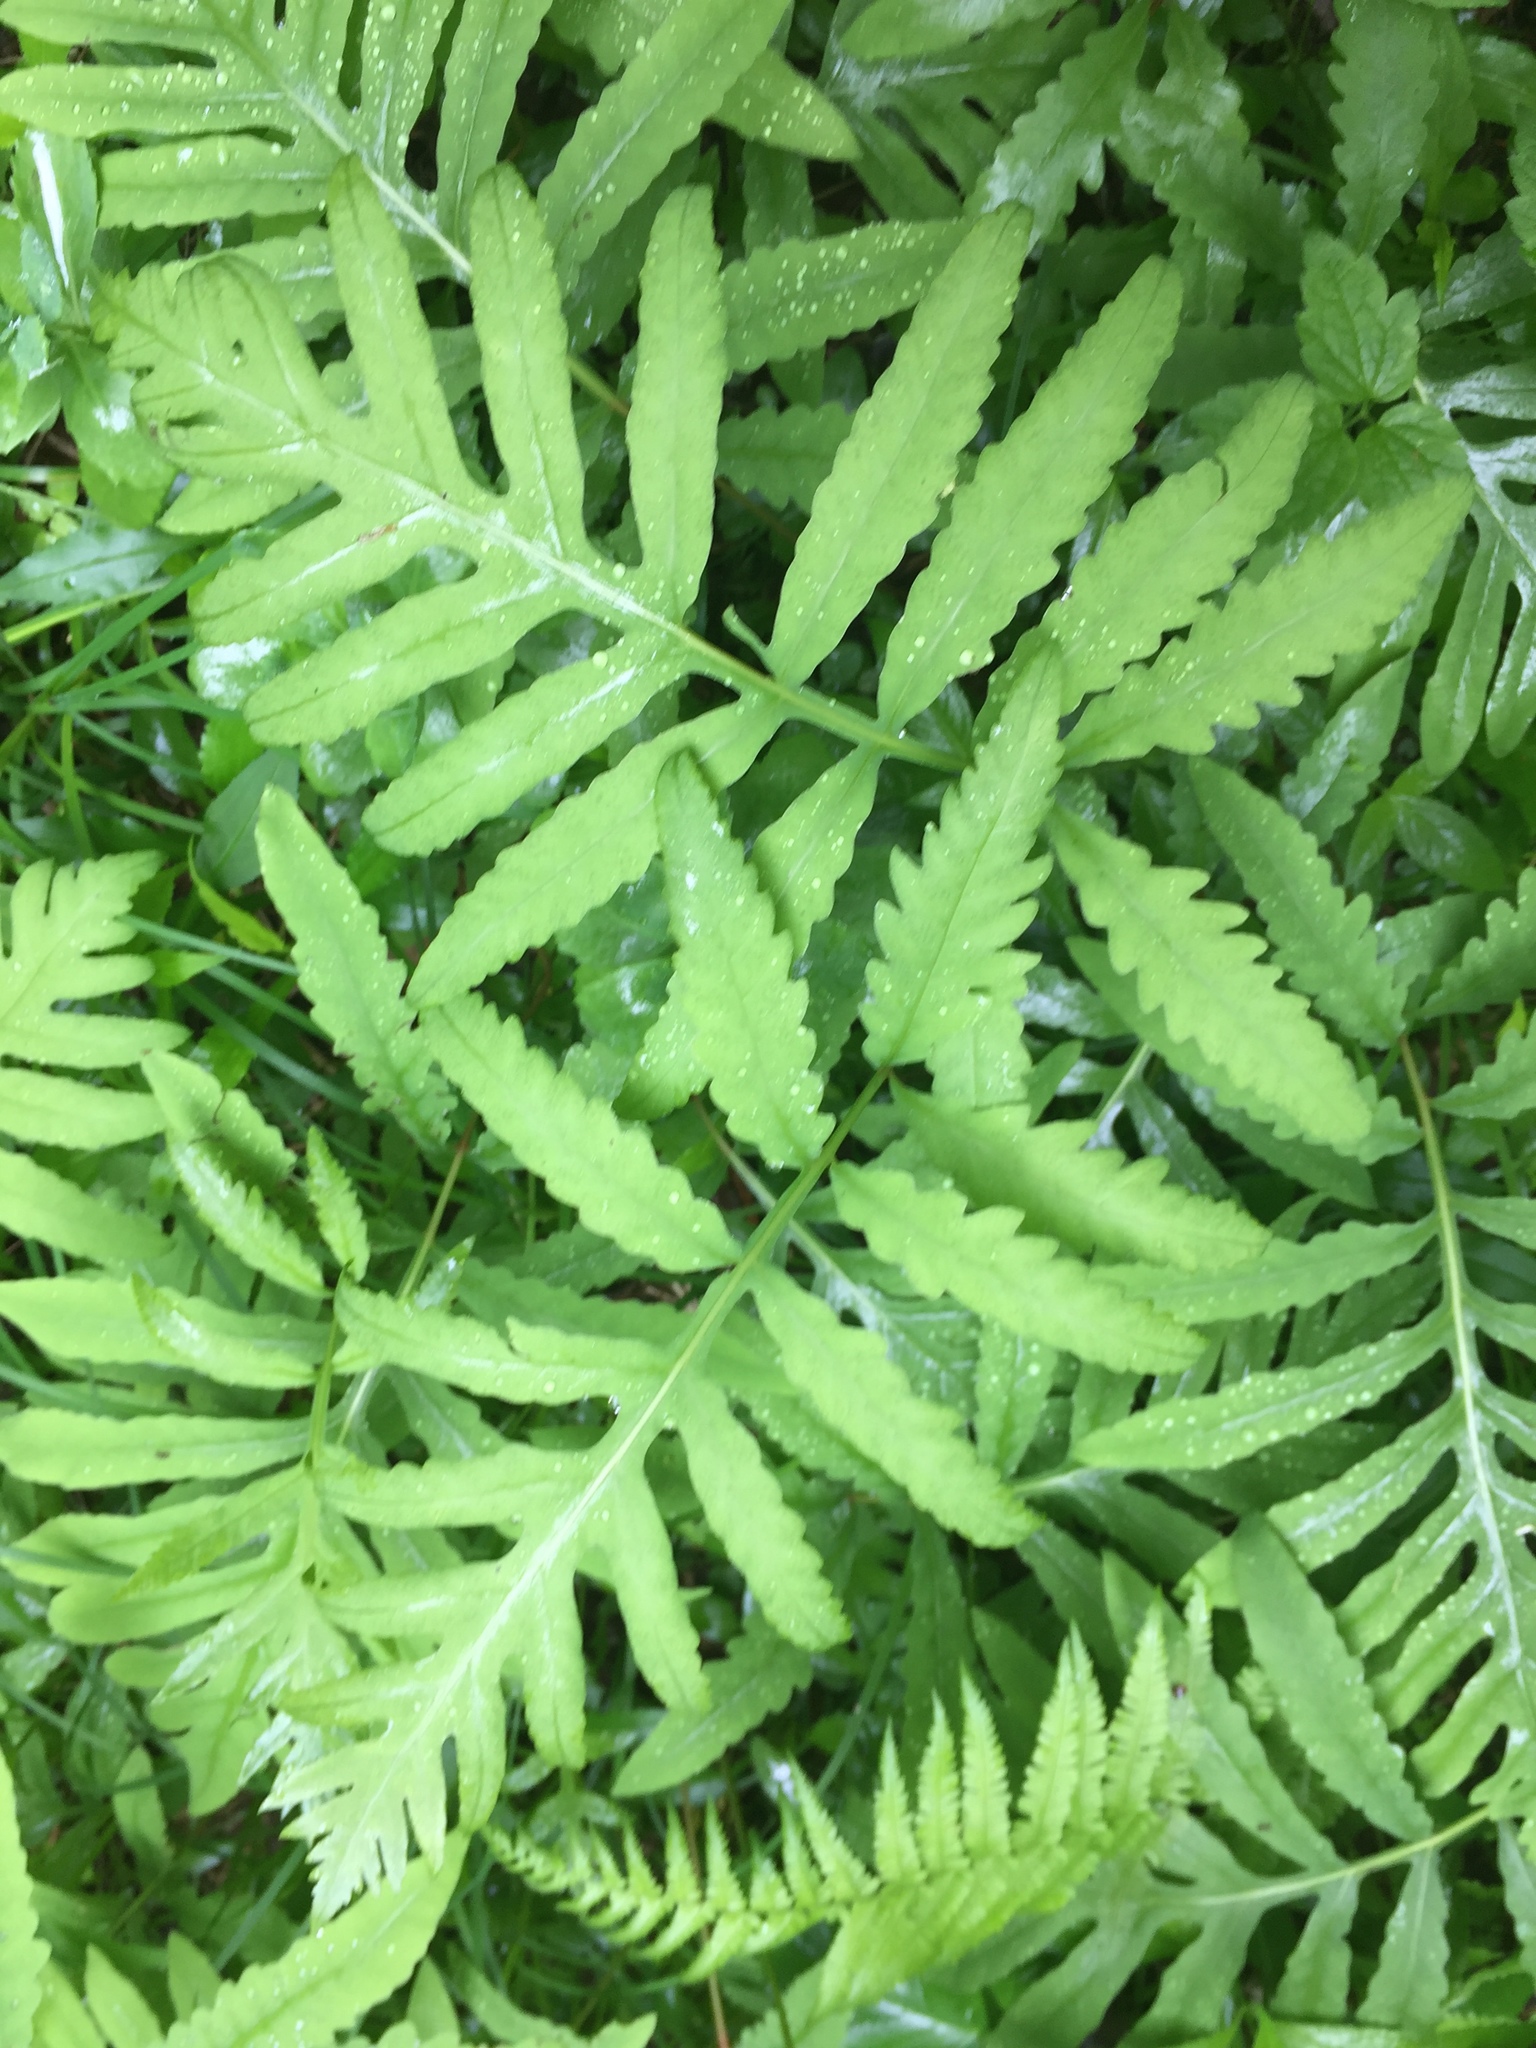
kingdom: Plantae
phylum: Tracheophyta
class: Polypodiopsida
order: Polypodiales
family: Onocleaceae
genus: Onoclea
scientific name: Onoclea sensibilis
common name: Sensitive fern
